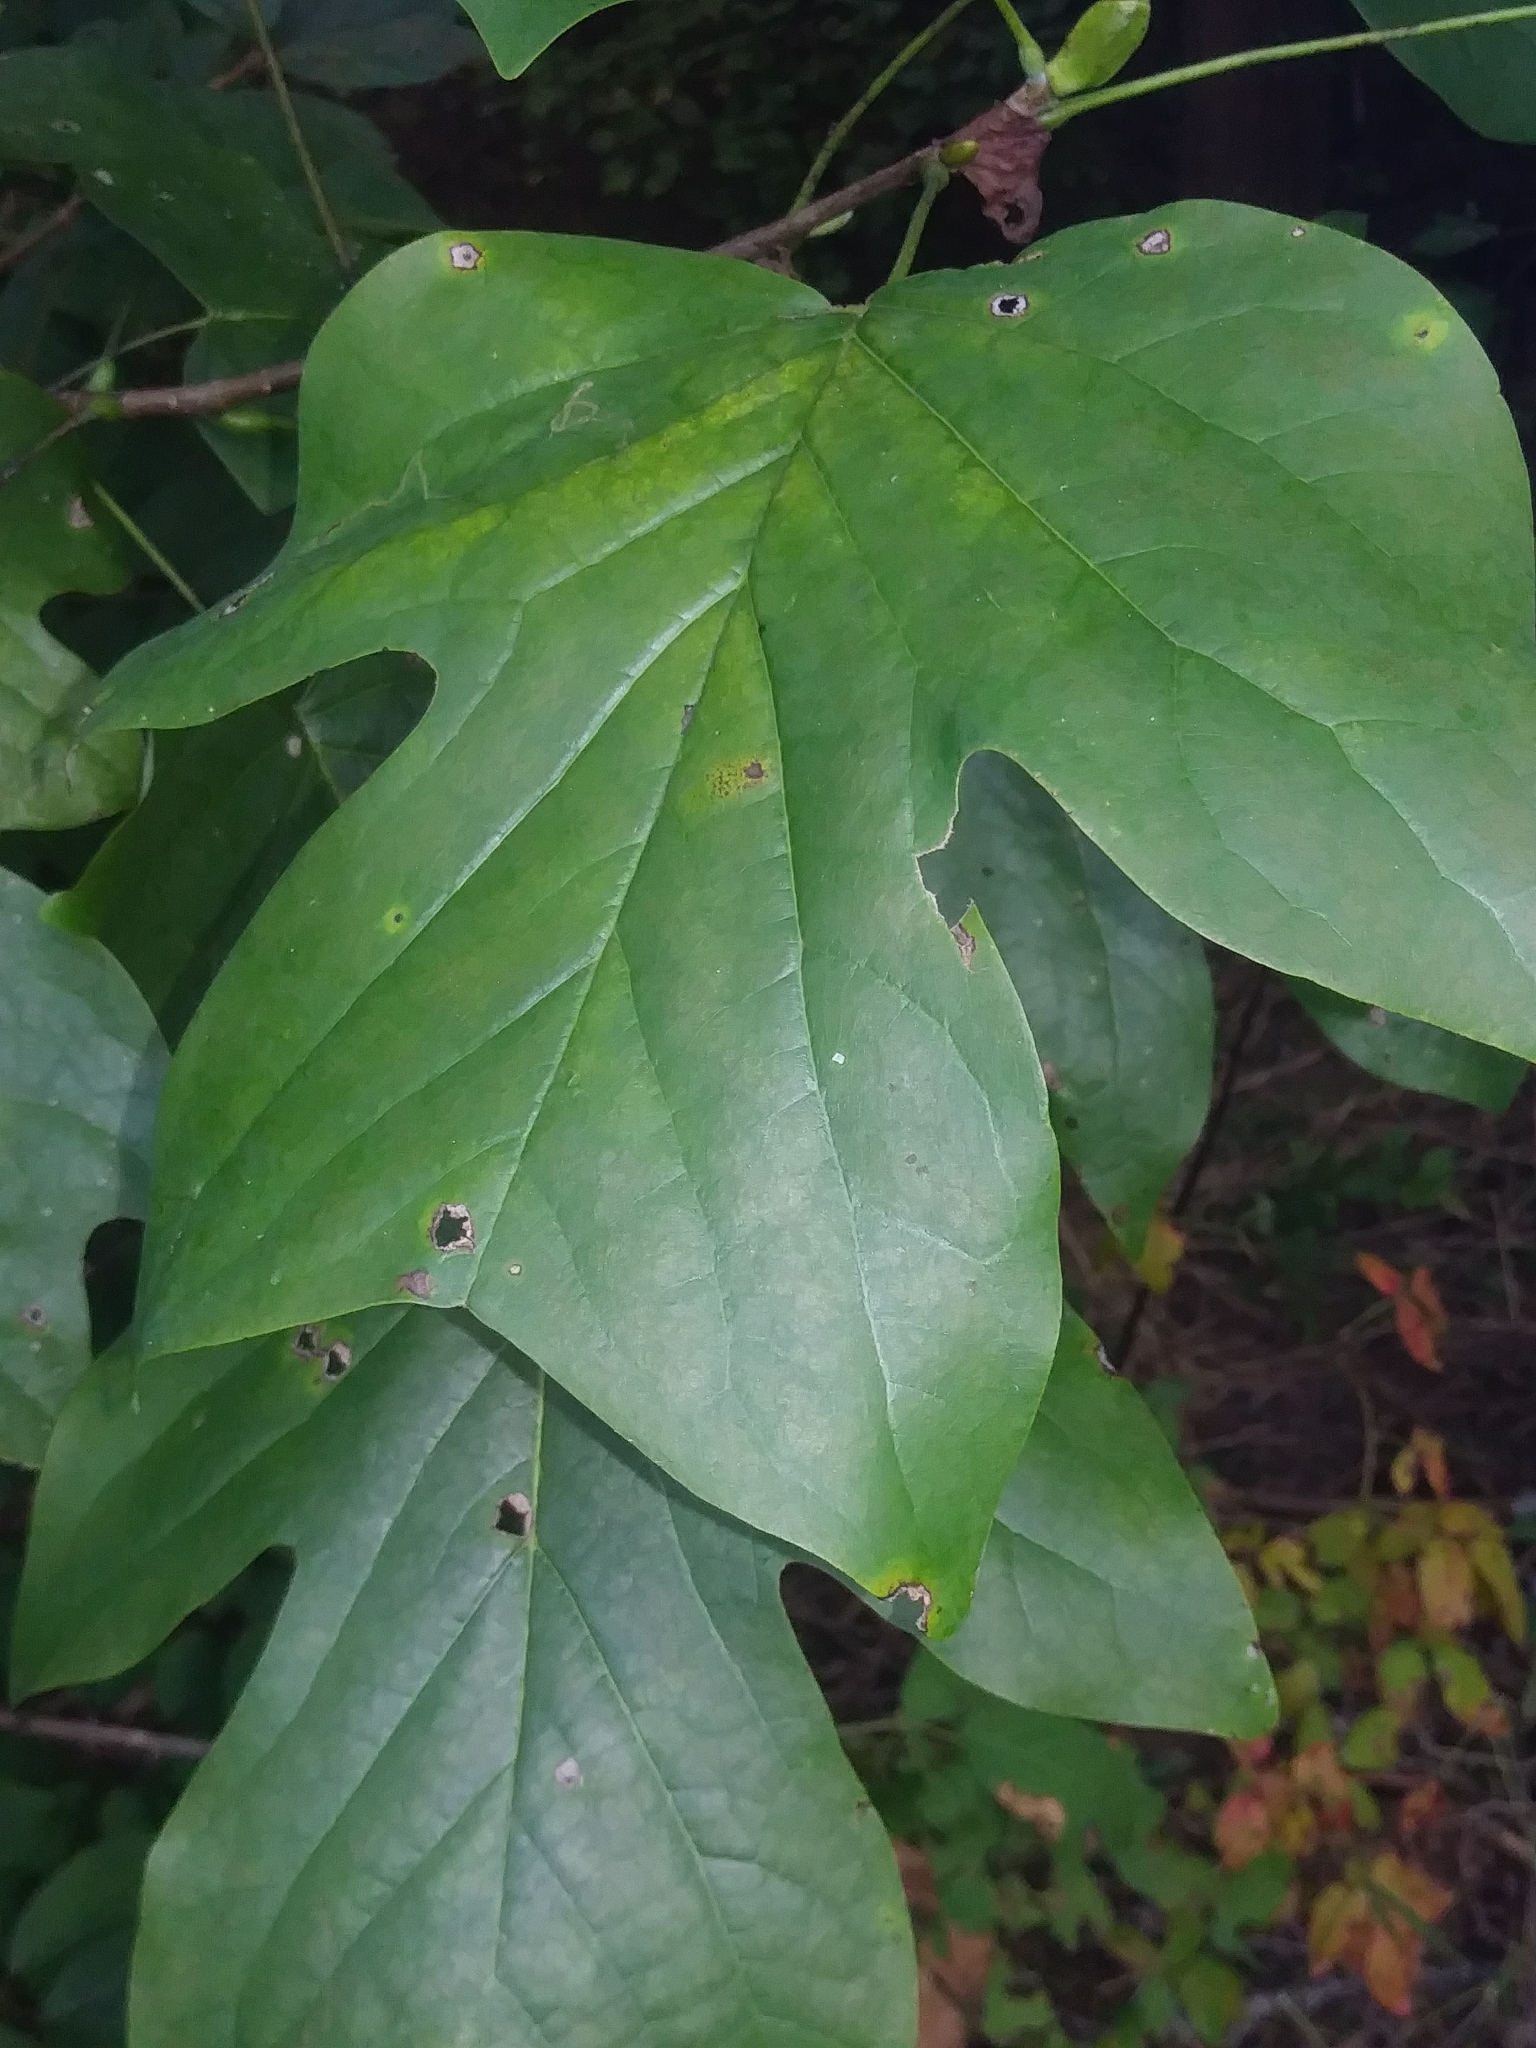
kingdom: Plantae
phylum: Tracheophyta
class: Magnoliopsida
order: Magnoliales
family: Magnoliaceae
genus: Liriodendron
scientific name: Liriodendron tulipifera
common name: Tulip tree
